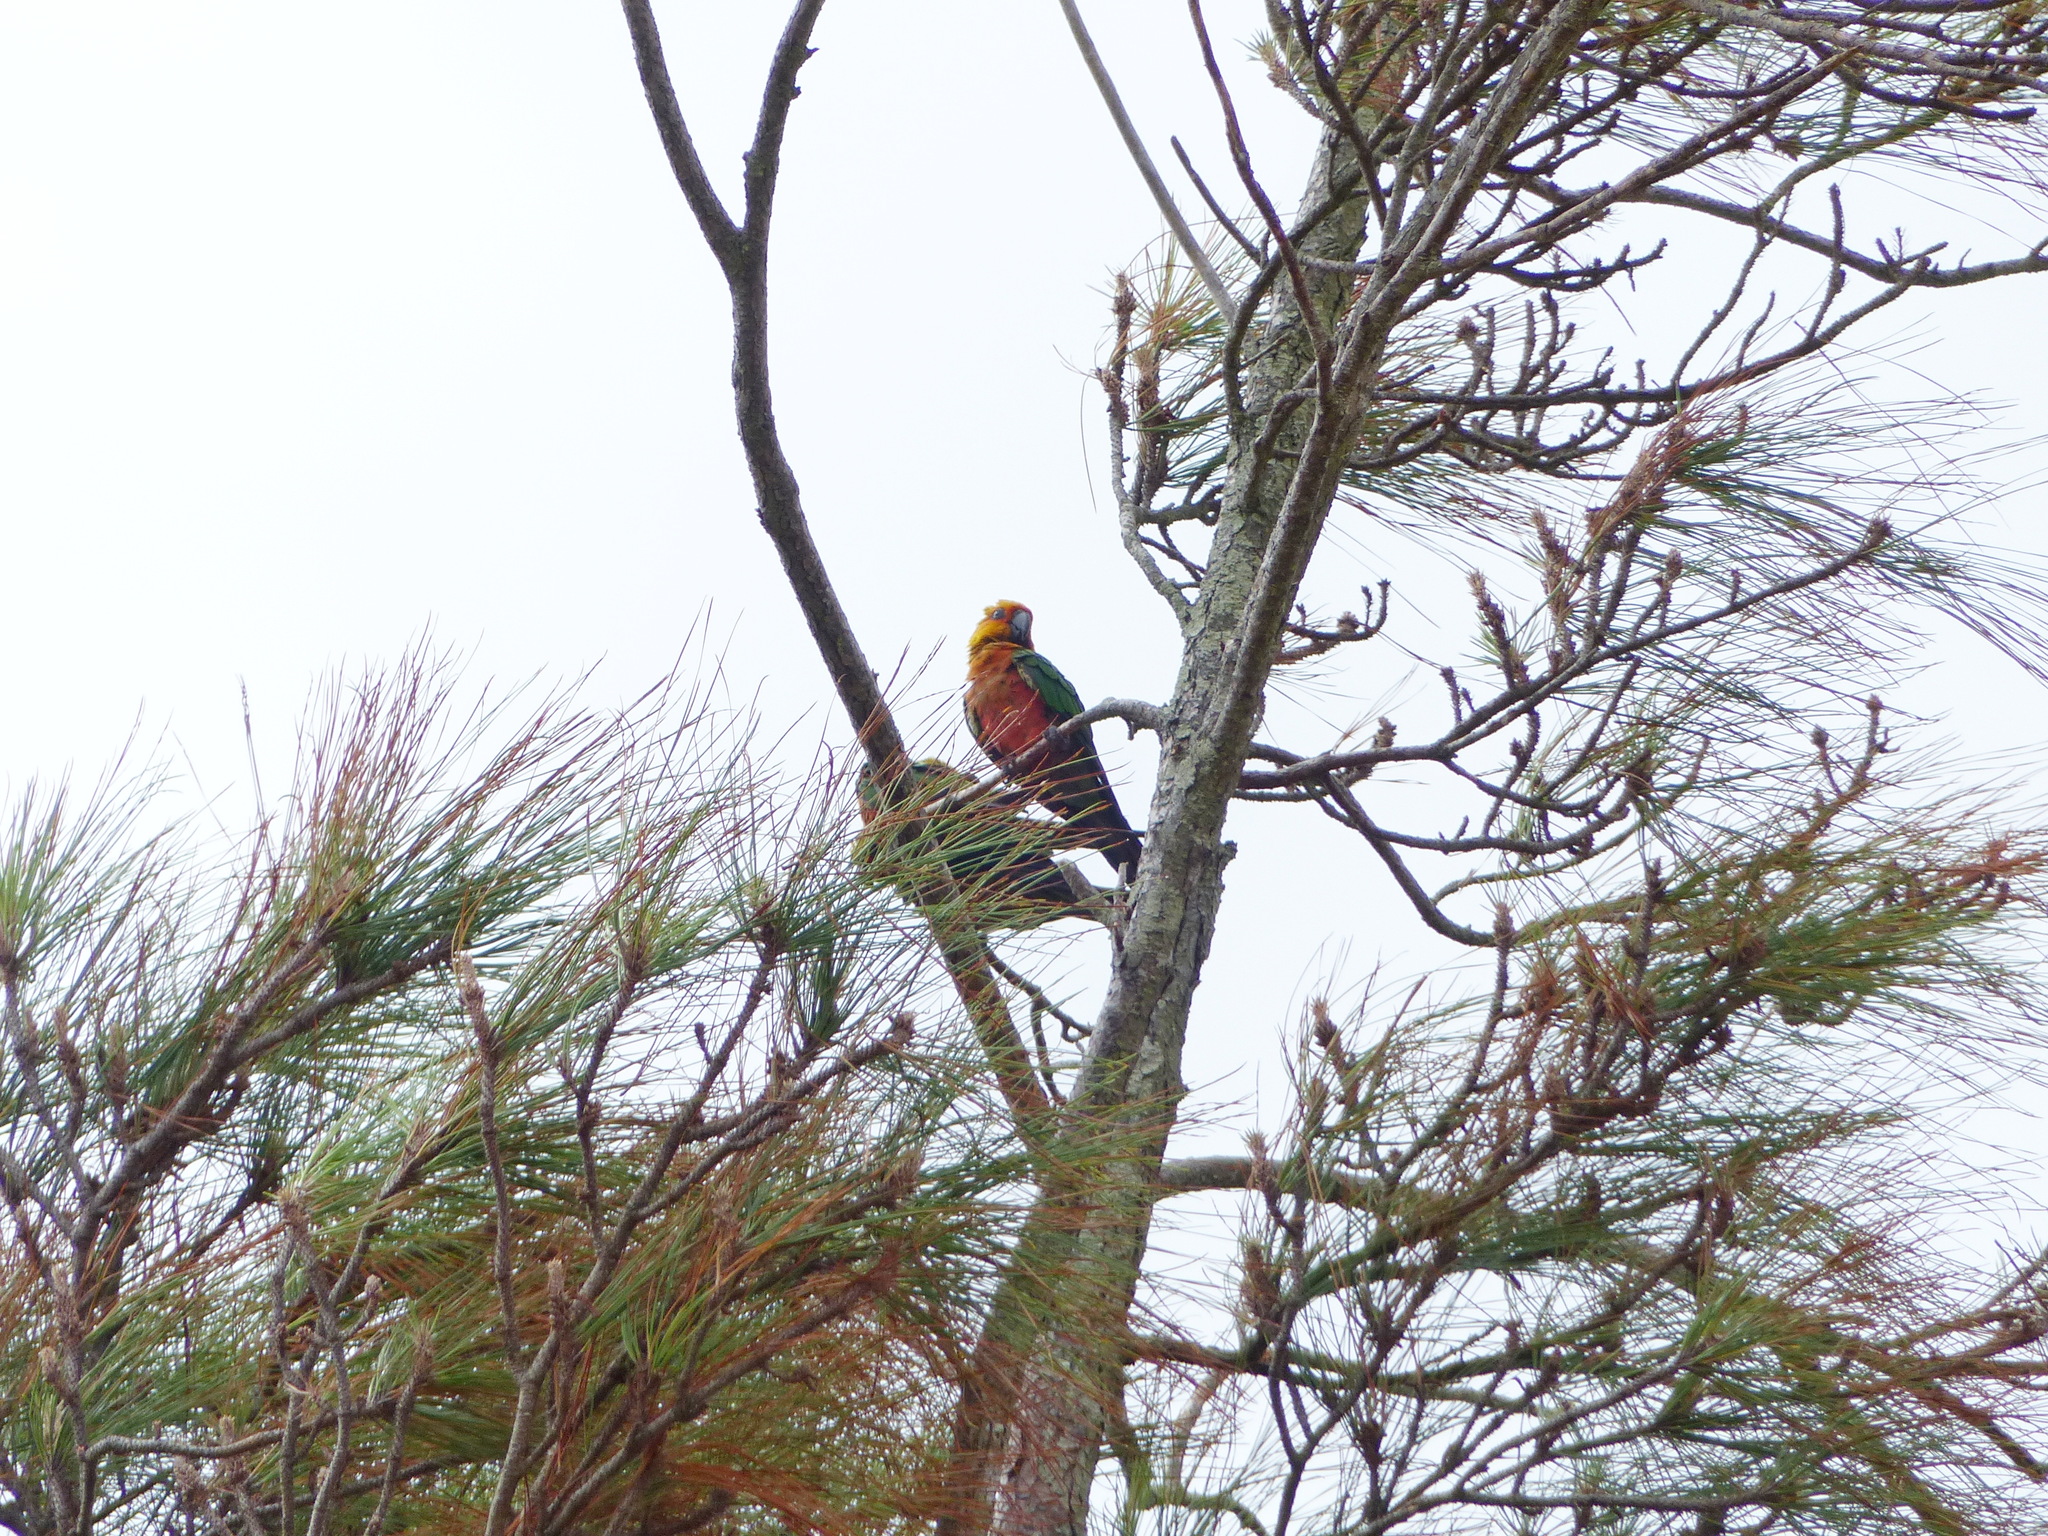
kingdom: Animalia
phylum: Chordata
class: Aves
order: Psittaciformes
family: Psittacidae
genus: Aratinga
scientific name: Aratinga jandaya
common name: Jandaya parakeet
